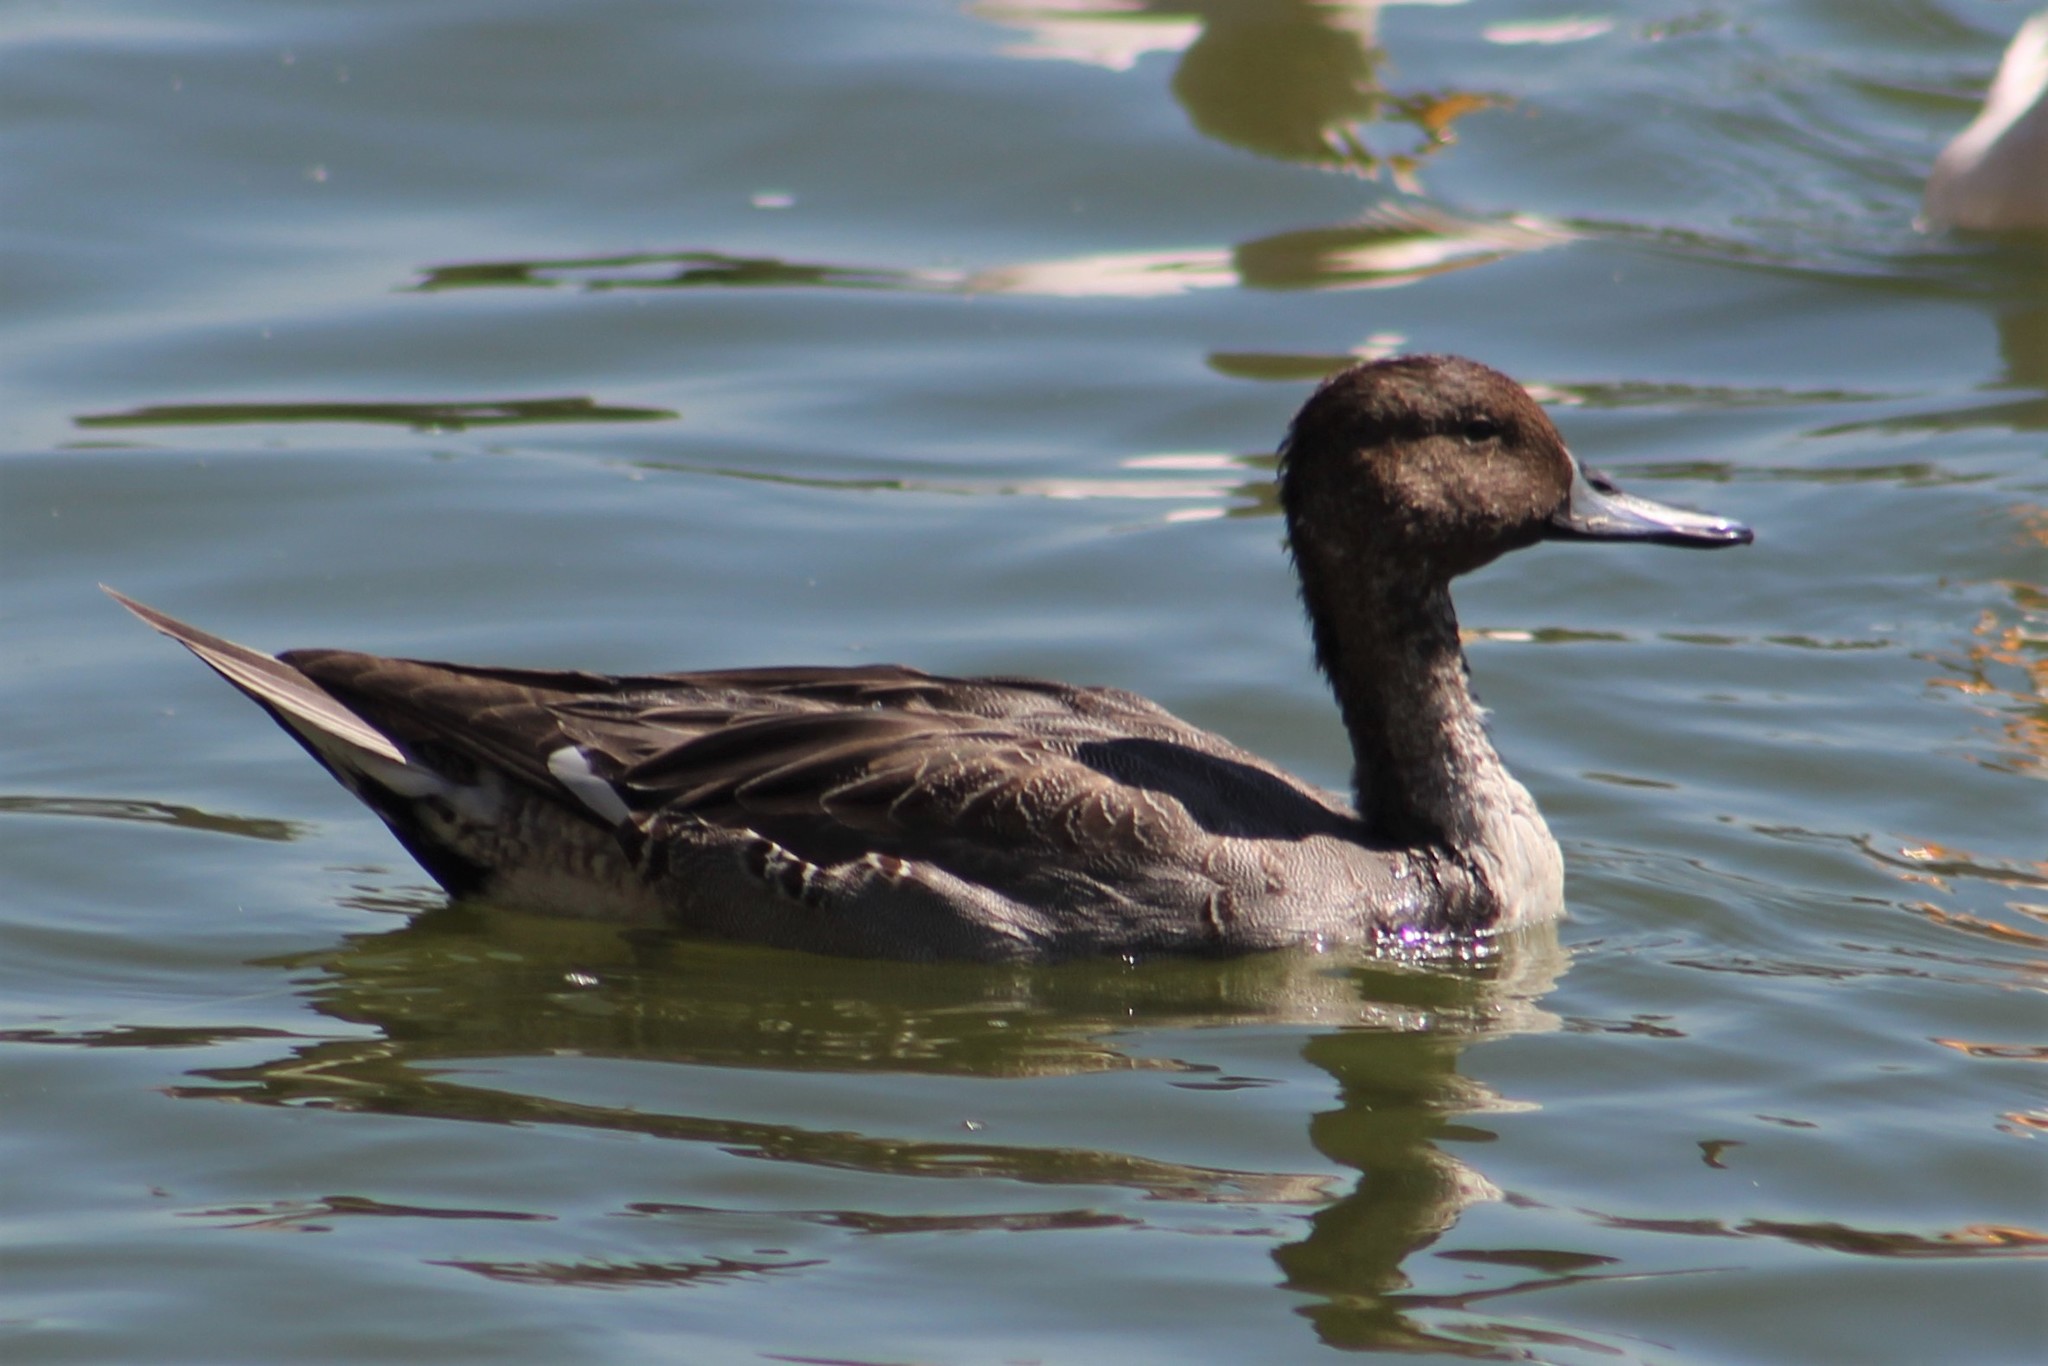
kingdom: Animalia
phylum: Chordata
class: Aves
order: Anseriformes
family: Anatidae
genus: Anas
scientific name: Anas acuta
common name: Northern pintail
